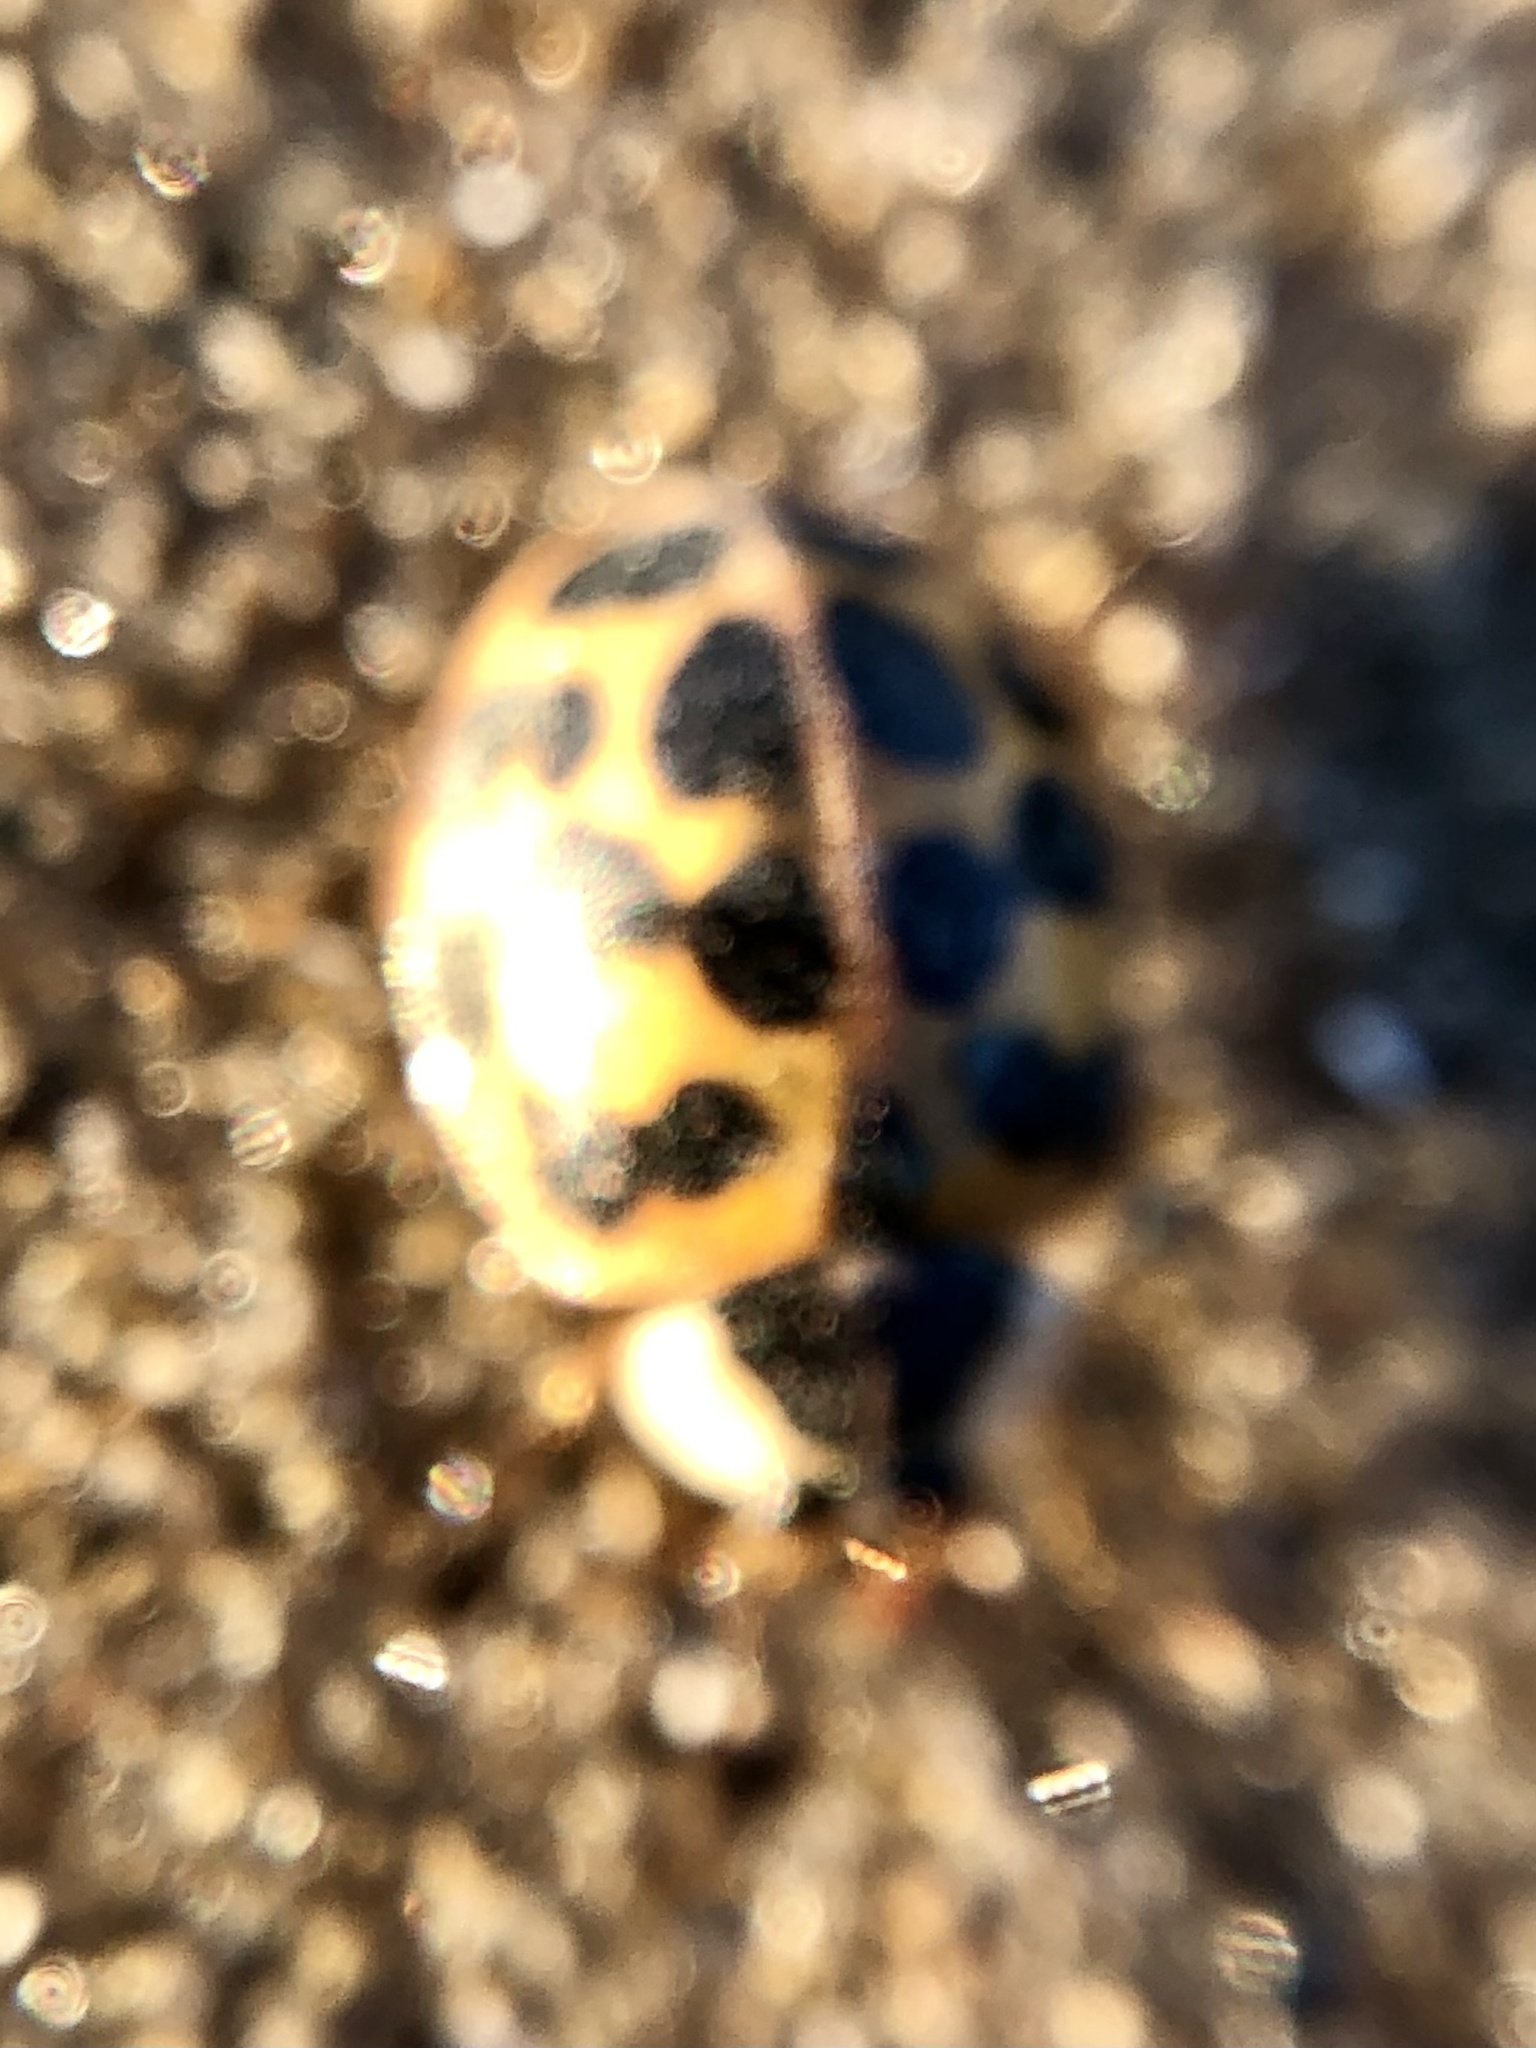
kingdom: Animalia
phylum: Arthropoda
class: Insecta
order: Coleoptera
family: Coccinellidae
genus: Harmonia
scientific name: Harmonia axyridis
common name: Harlequin ladybird
